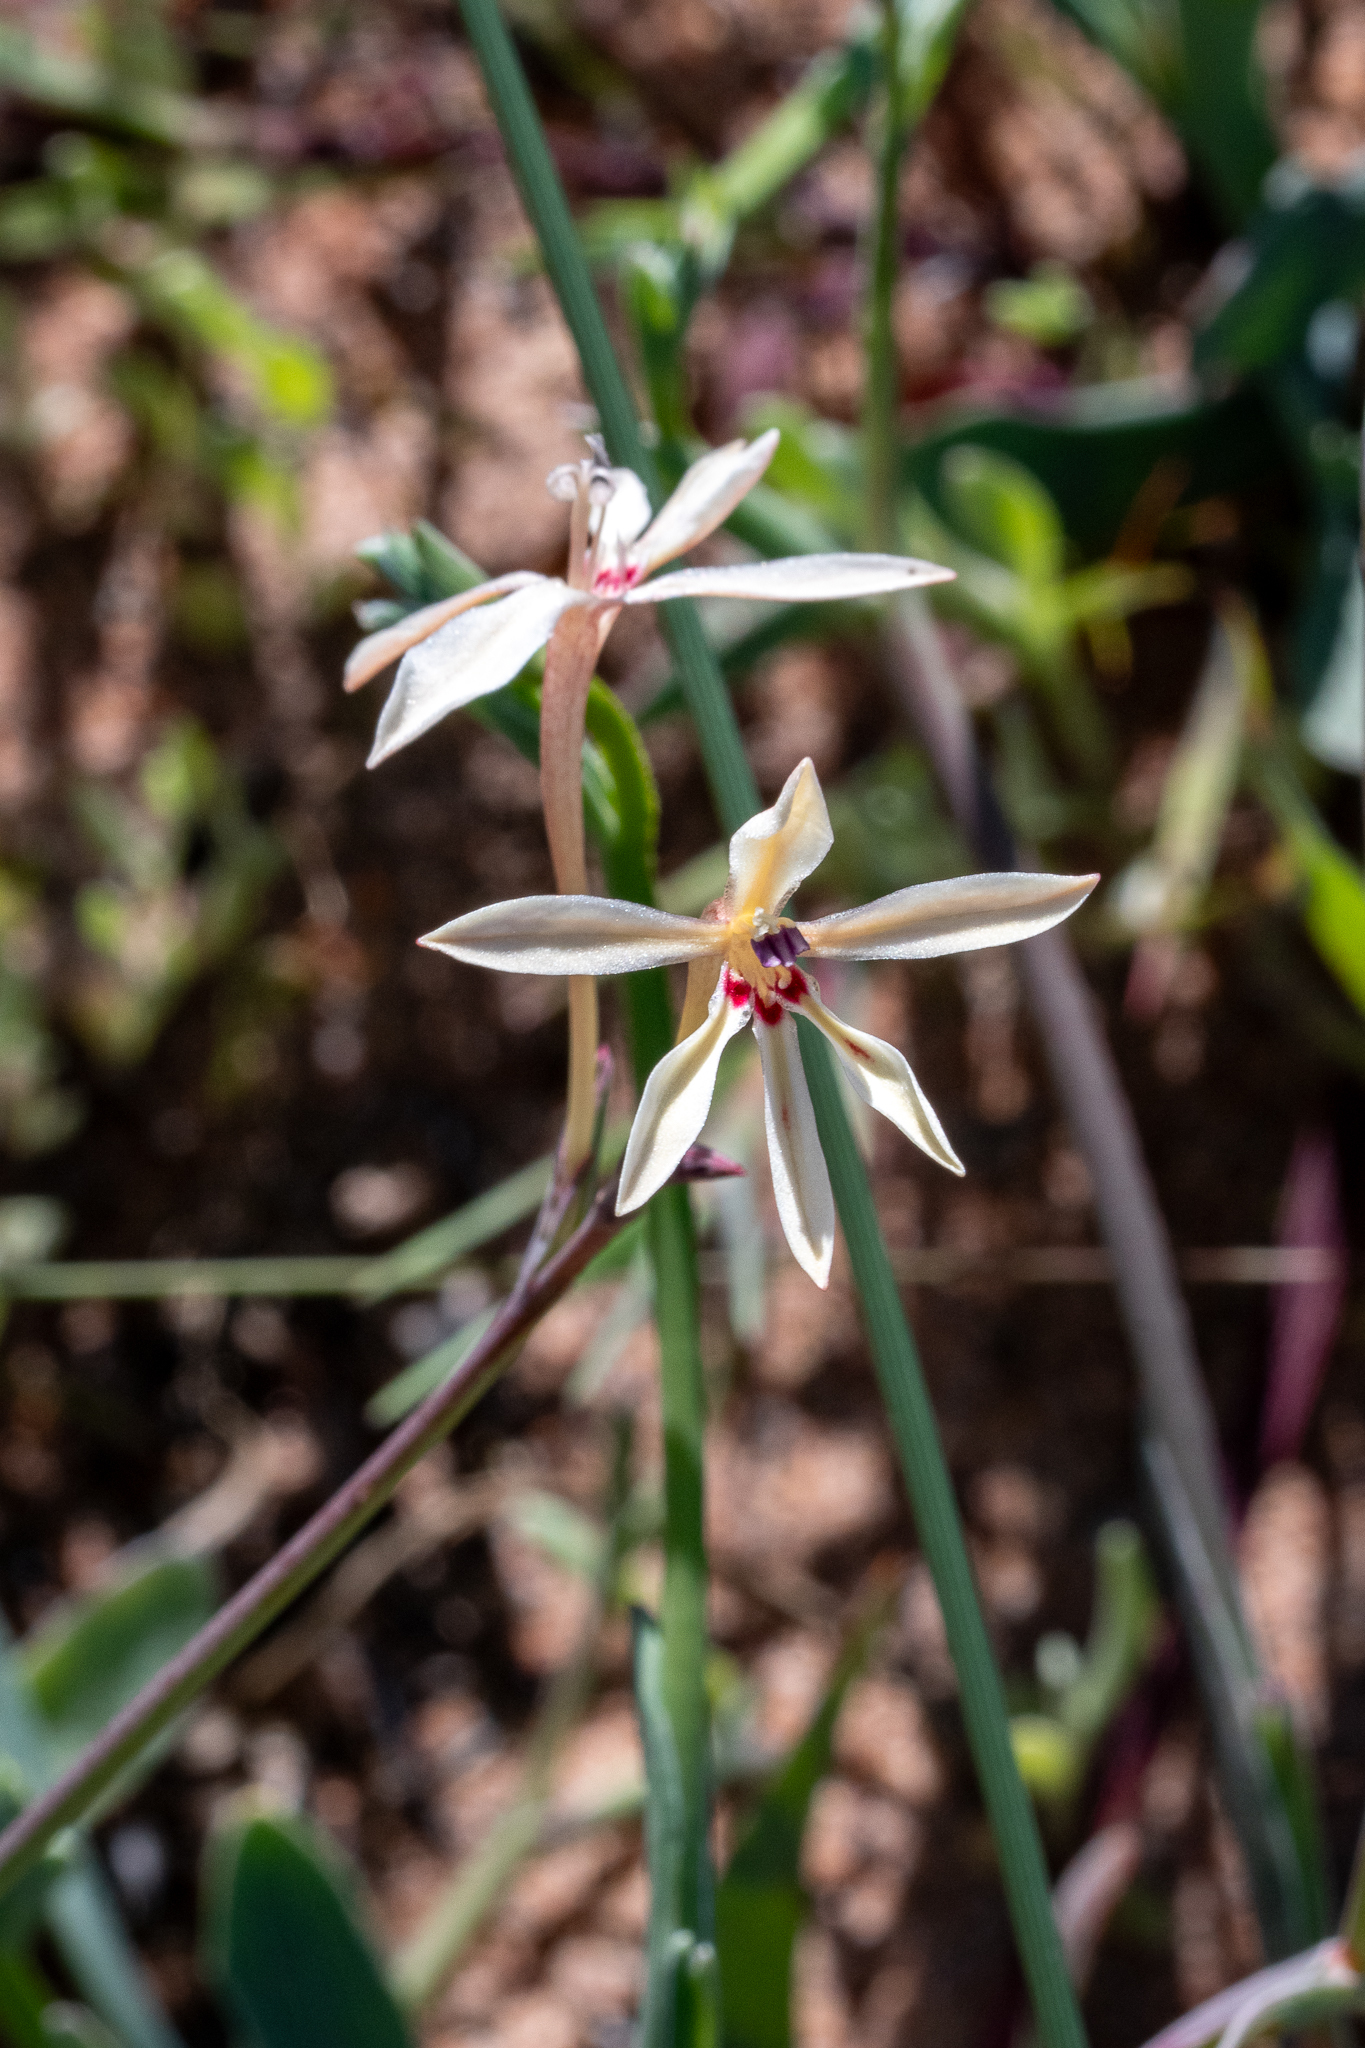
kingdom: Plantae
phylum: Tracheophyta
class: Liliopsida
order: Asparagales
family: Iridaceae
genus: Lapeirousia
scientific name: Lapeirousia anceps
